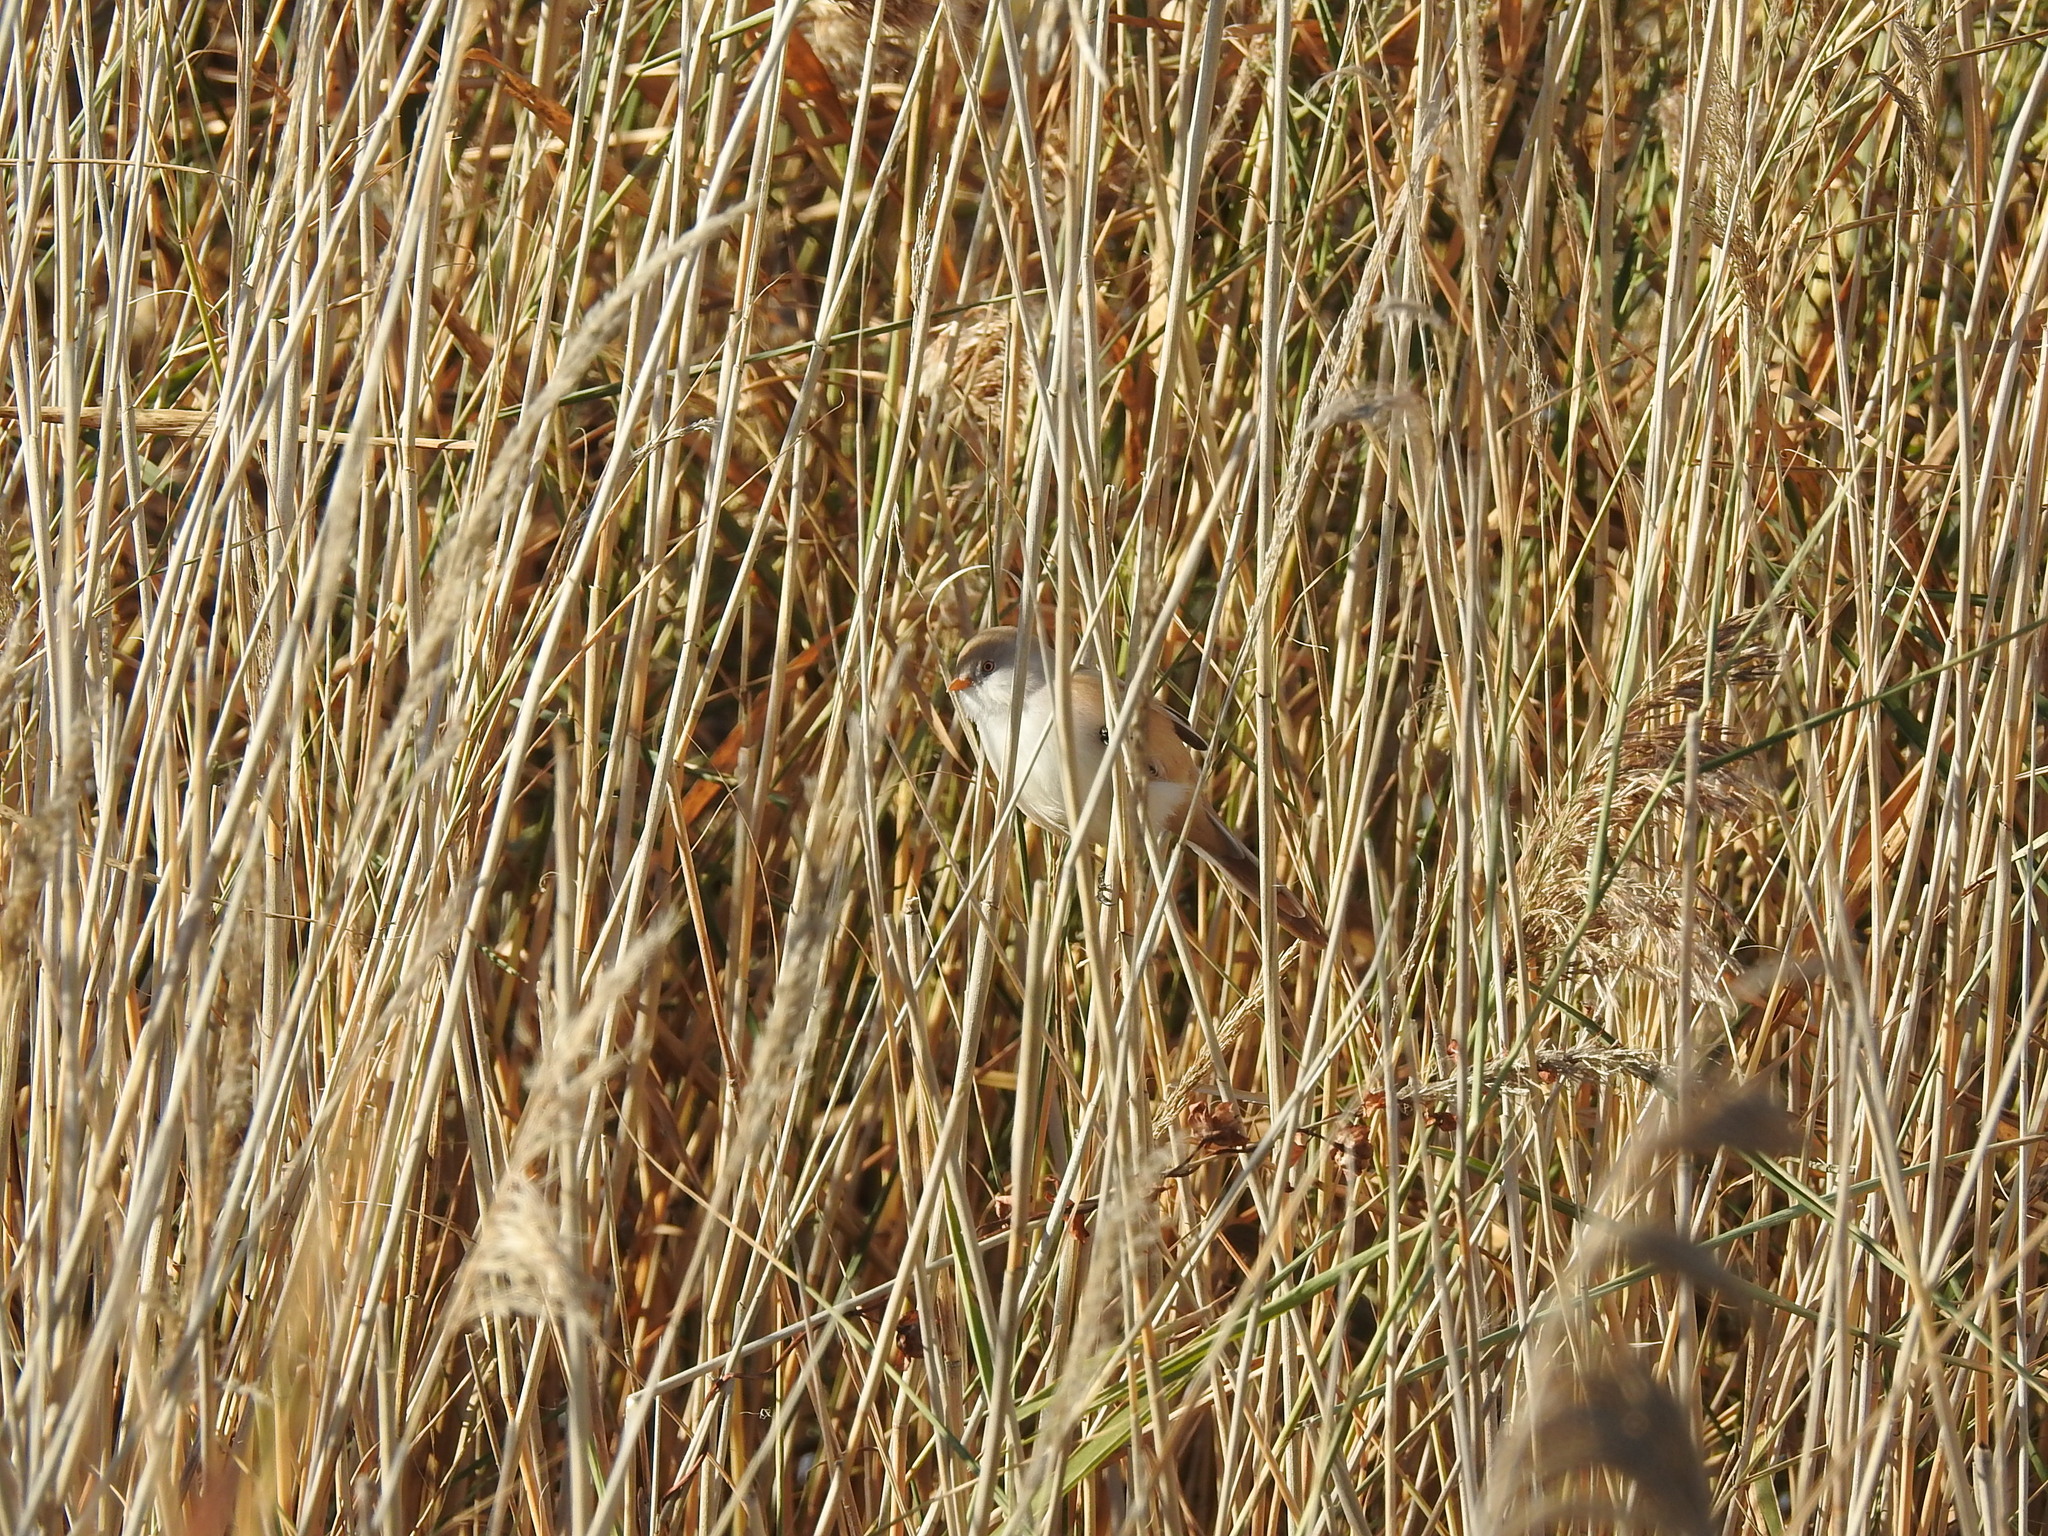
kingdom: Animalia
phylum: Chordata
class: Aves
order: Passeriformes
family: Panuridae
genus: Panurus
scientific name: Panurus biarmicus
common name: Bearded reedling
